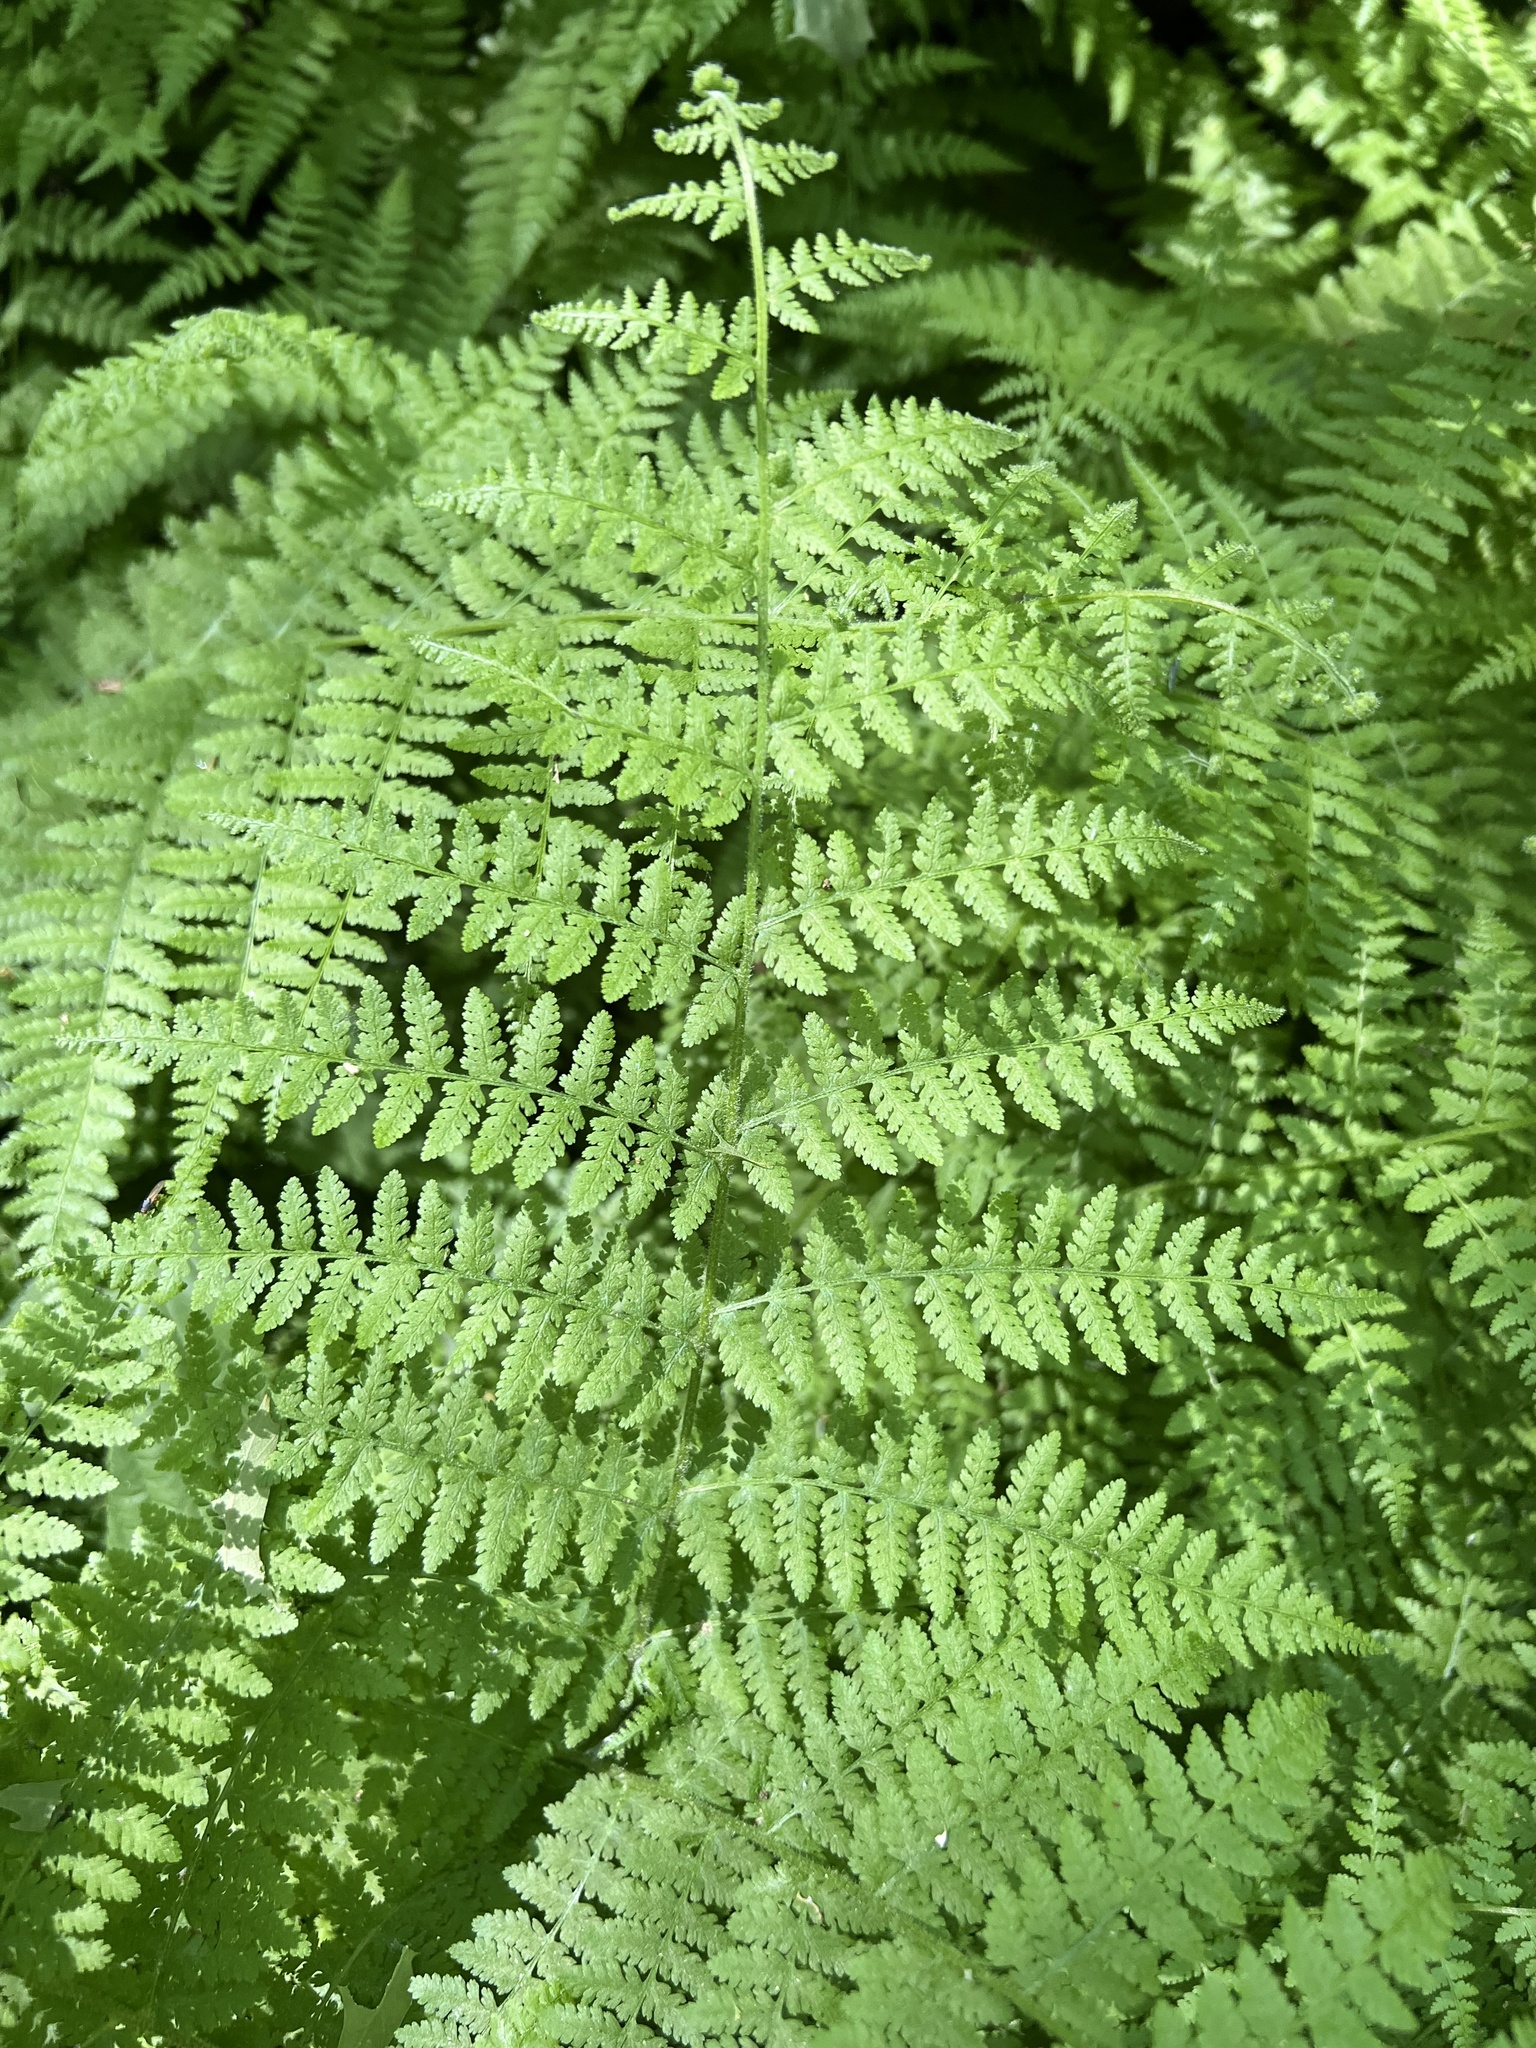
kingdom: Plantae
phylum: Tracheophyta
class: Polypodiopsida
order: Polypodiales
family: Dennstaedtiaceae
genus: Sitobolium
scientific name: Sitobolium punctilobum
